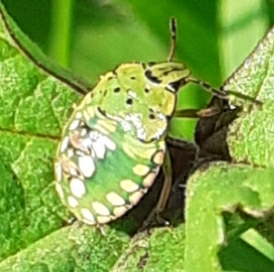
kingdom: Animalia
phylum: Arthropoda
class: Insecta
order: Hemiptera
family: Pentatomidae
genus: Nezara
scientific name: Nezara viridula
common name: Southern green stink bug
